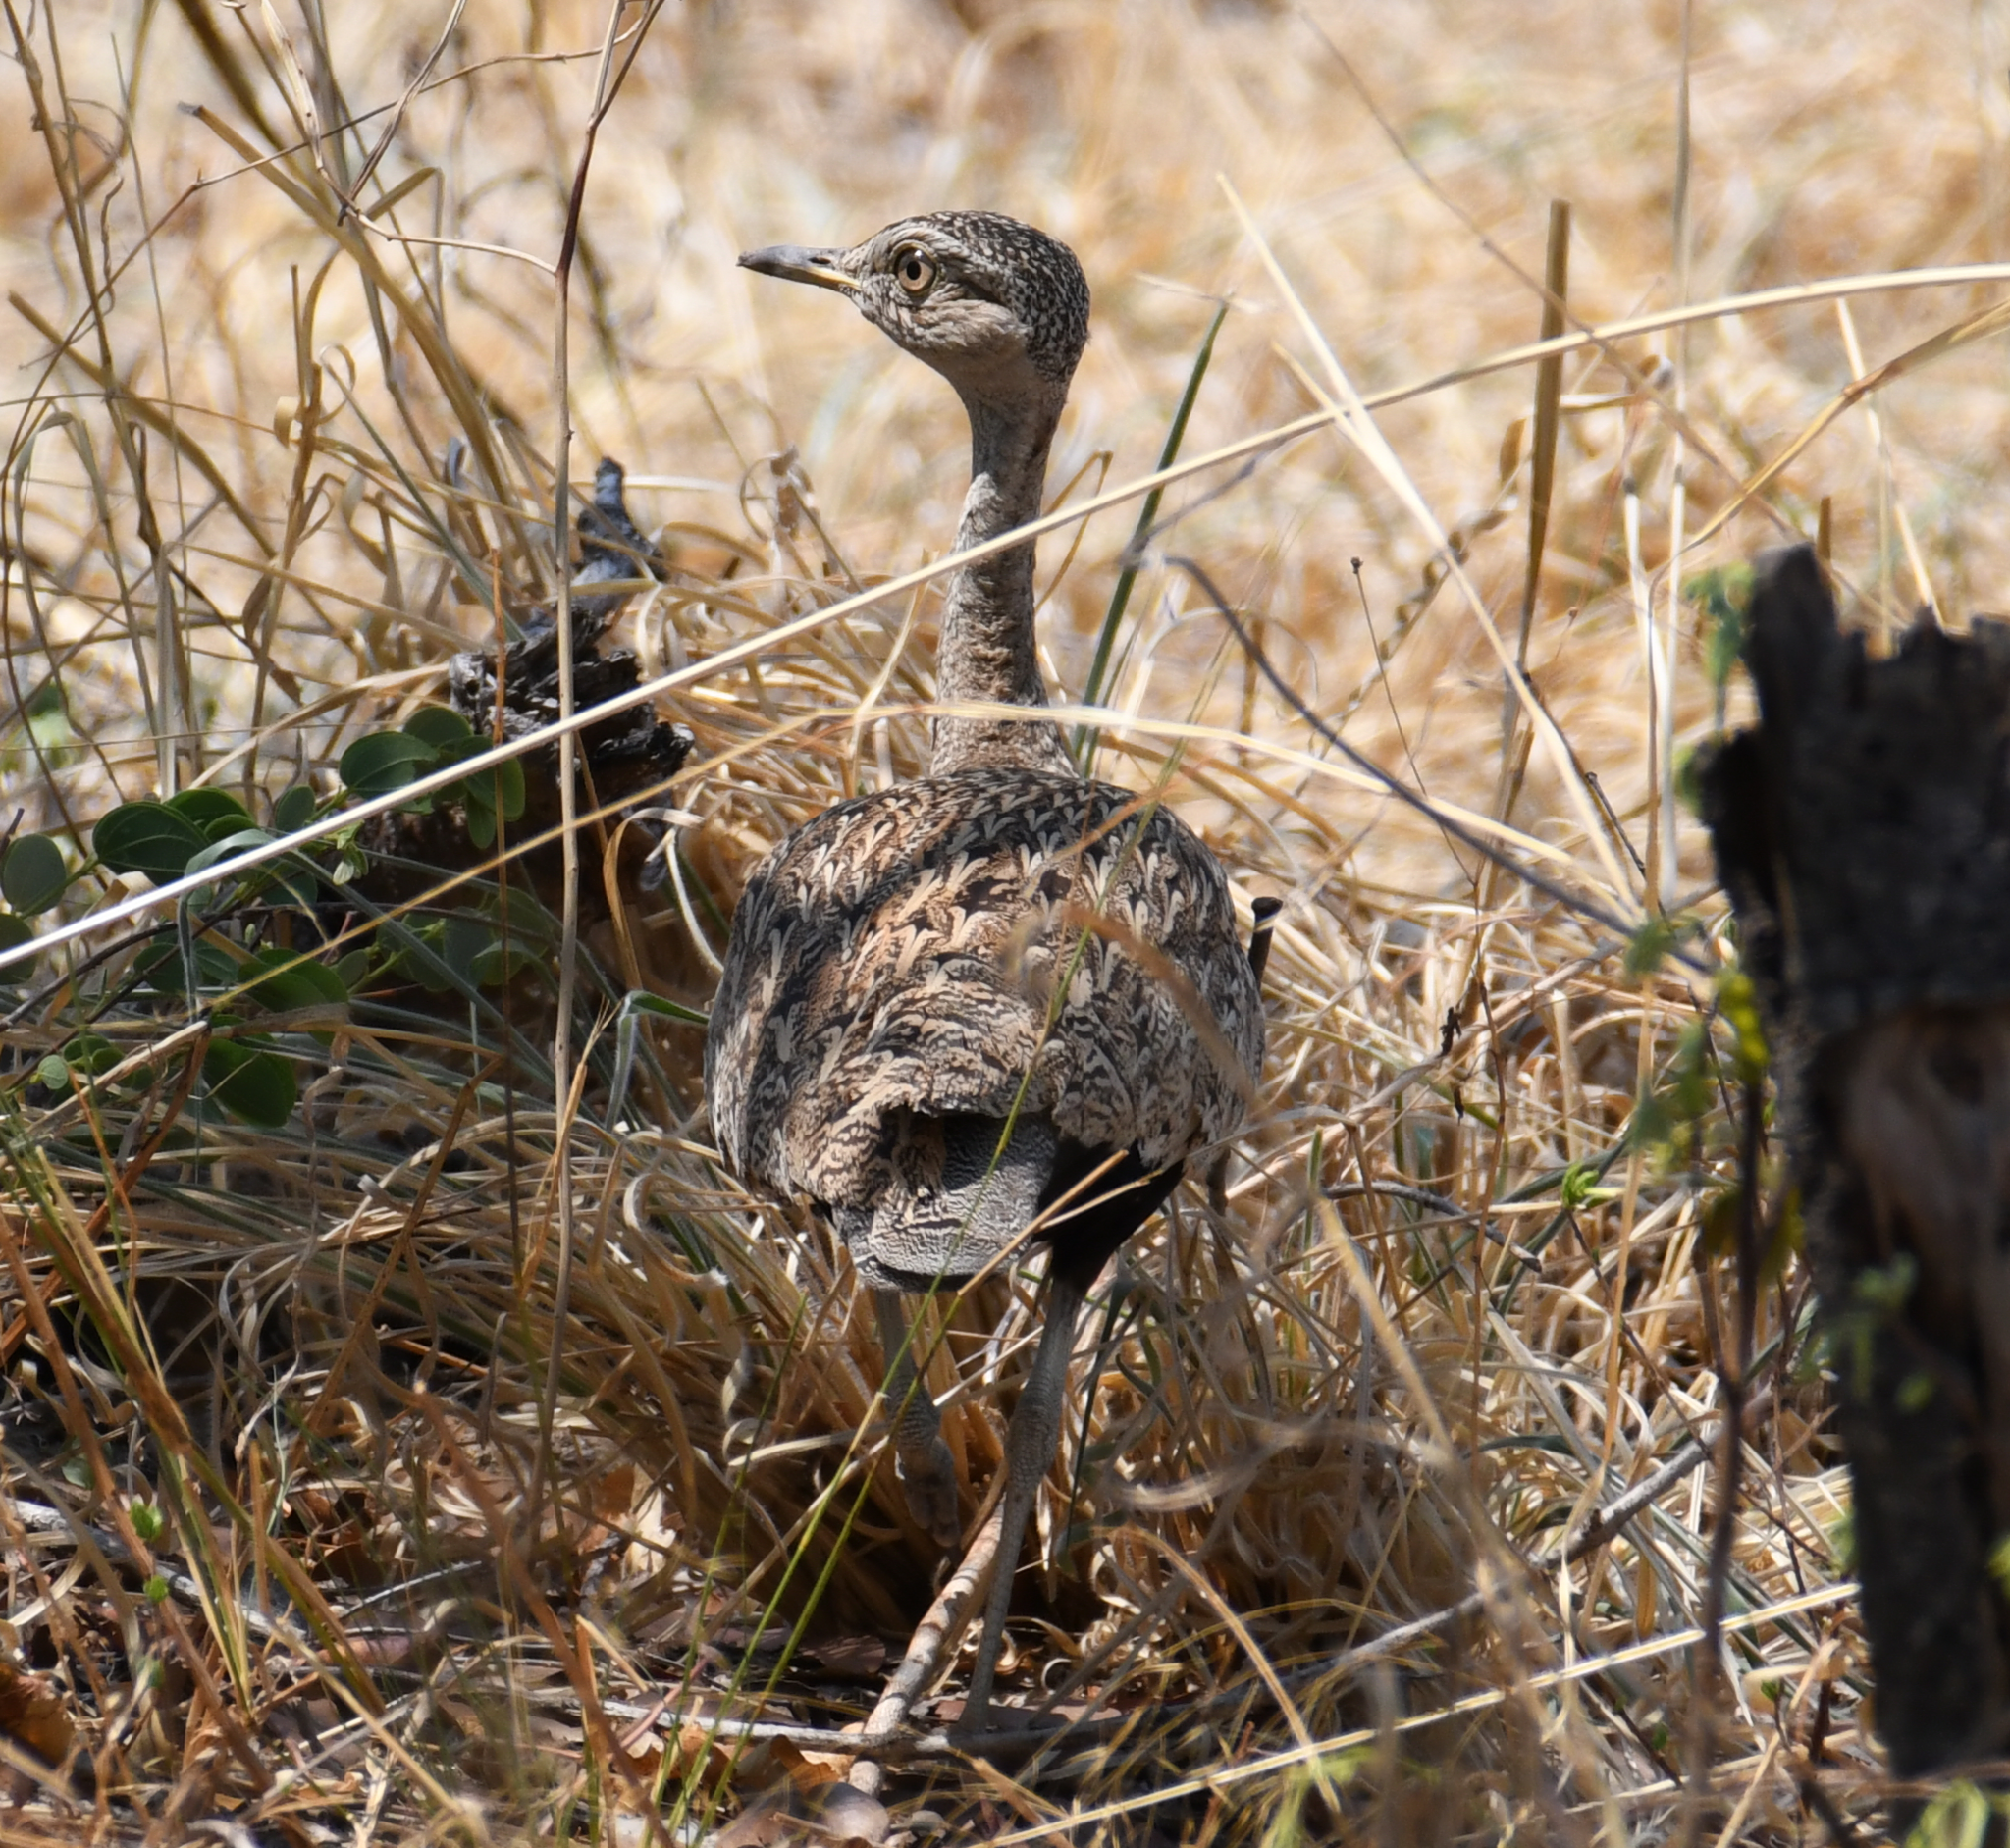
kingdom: Animalia
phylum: Chordata
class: Aves
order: Otidiformes
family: Otididae
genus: Lophotis
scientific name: Lophotis ruficrista
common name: Red-crested korhaan
